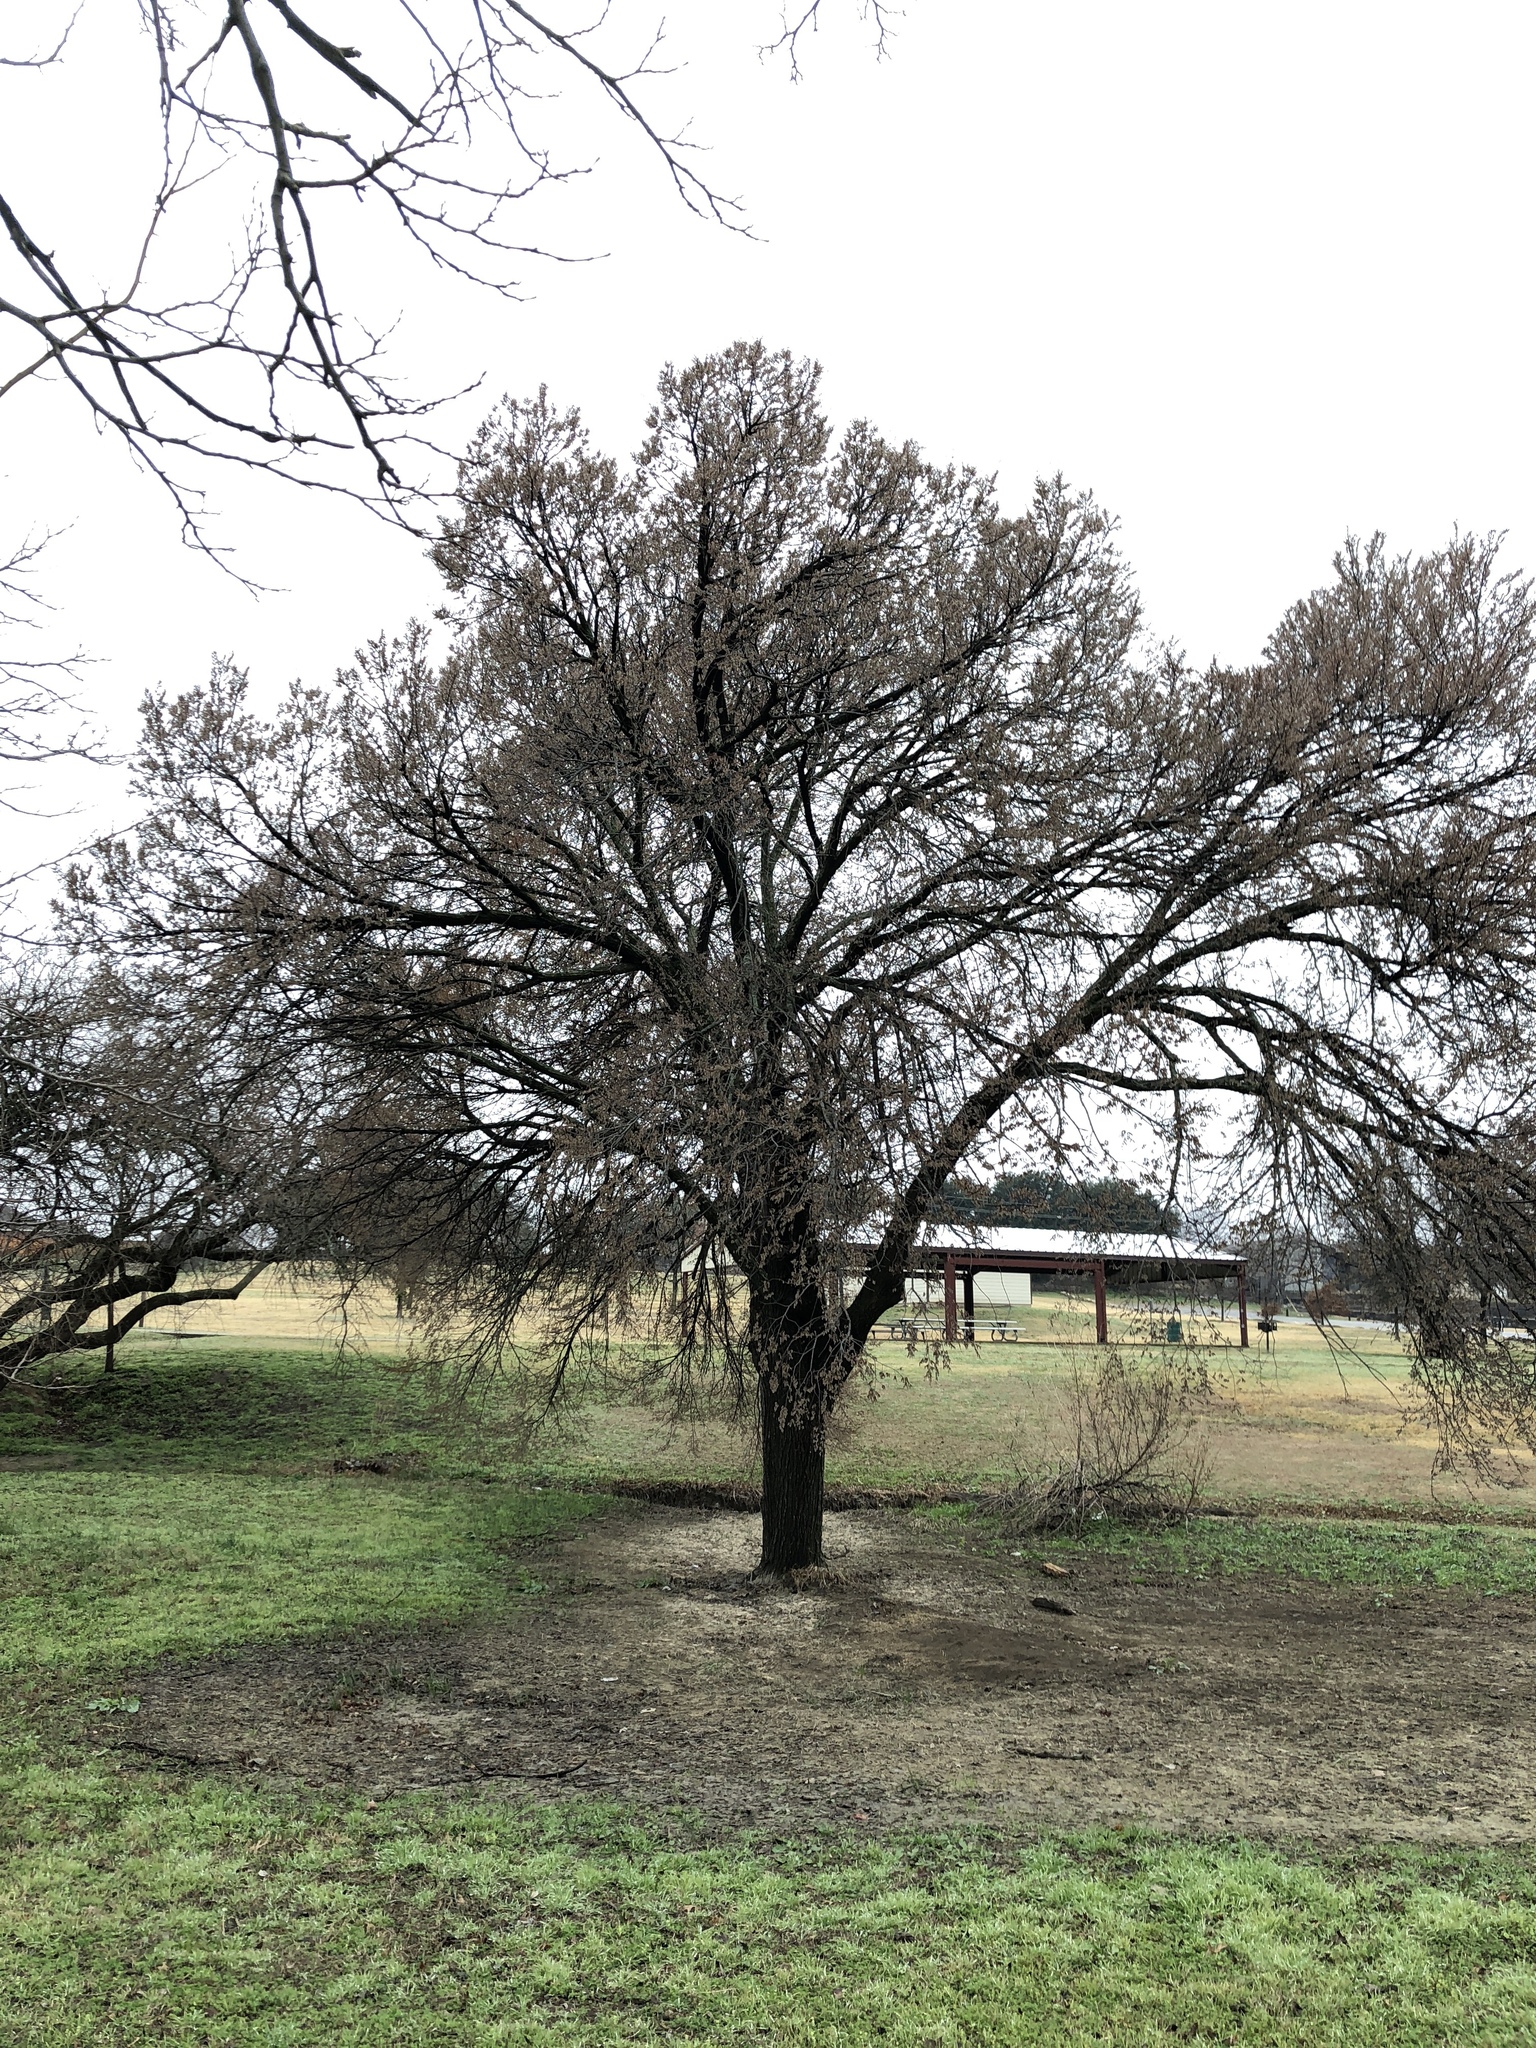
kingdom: Plantae
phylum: Tracheophyta
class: Magnoliopsida
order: Rosales
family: Ulmaceae
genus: Ulmus
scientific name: Ulmus americana
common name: American elm
